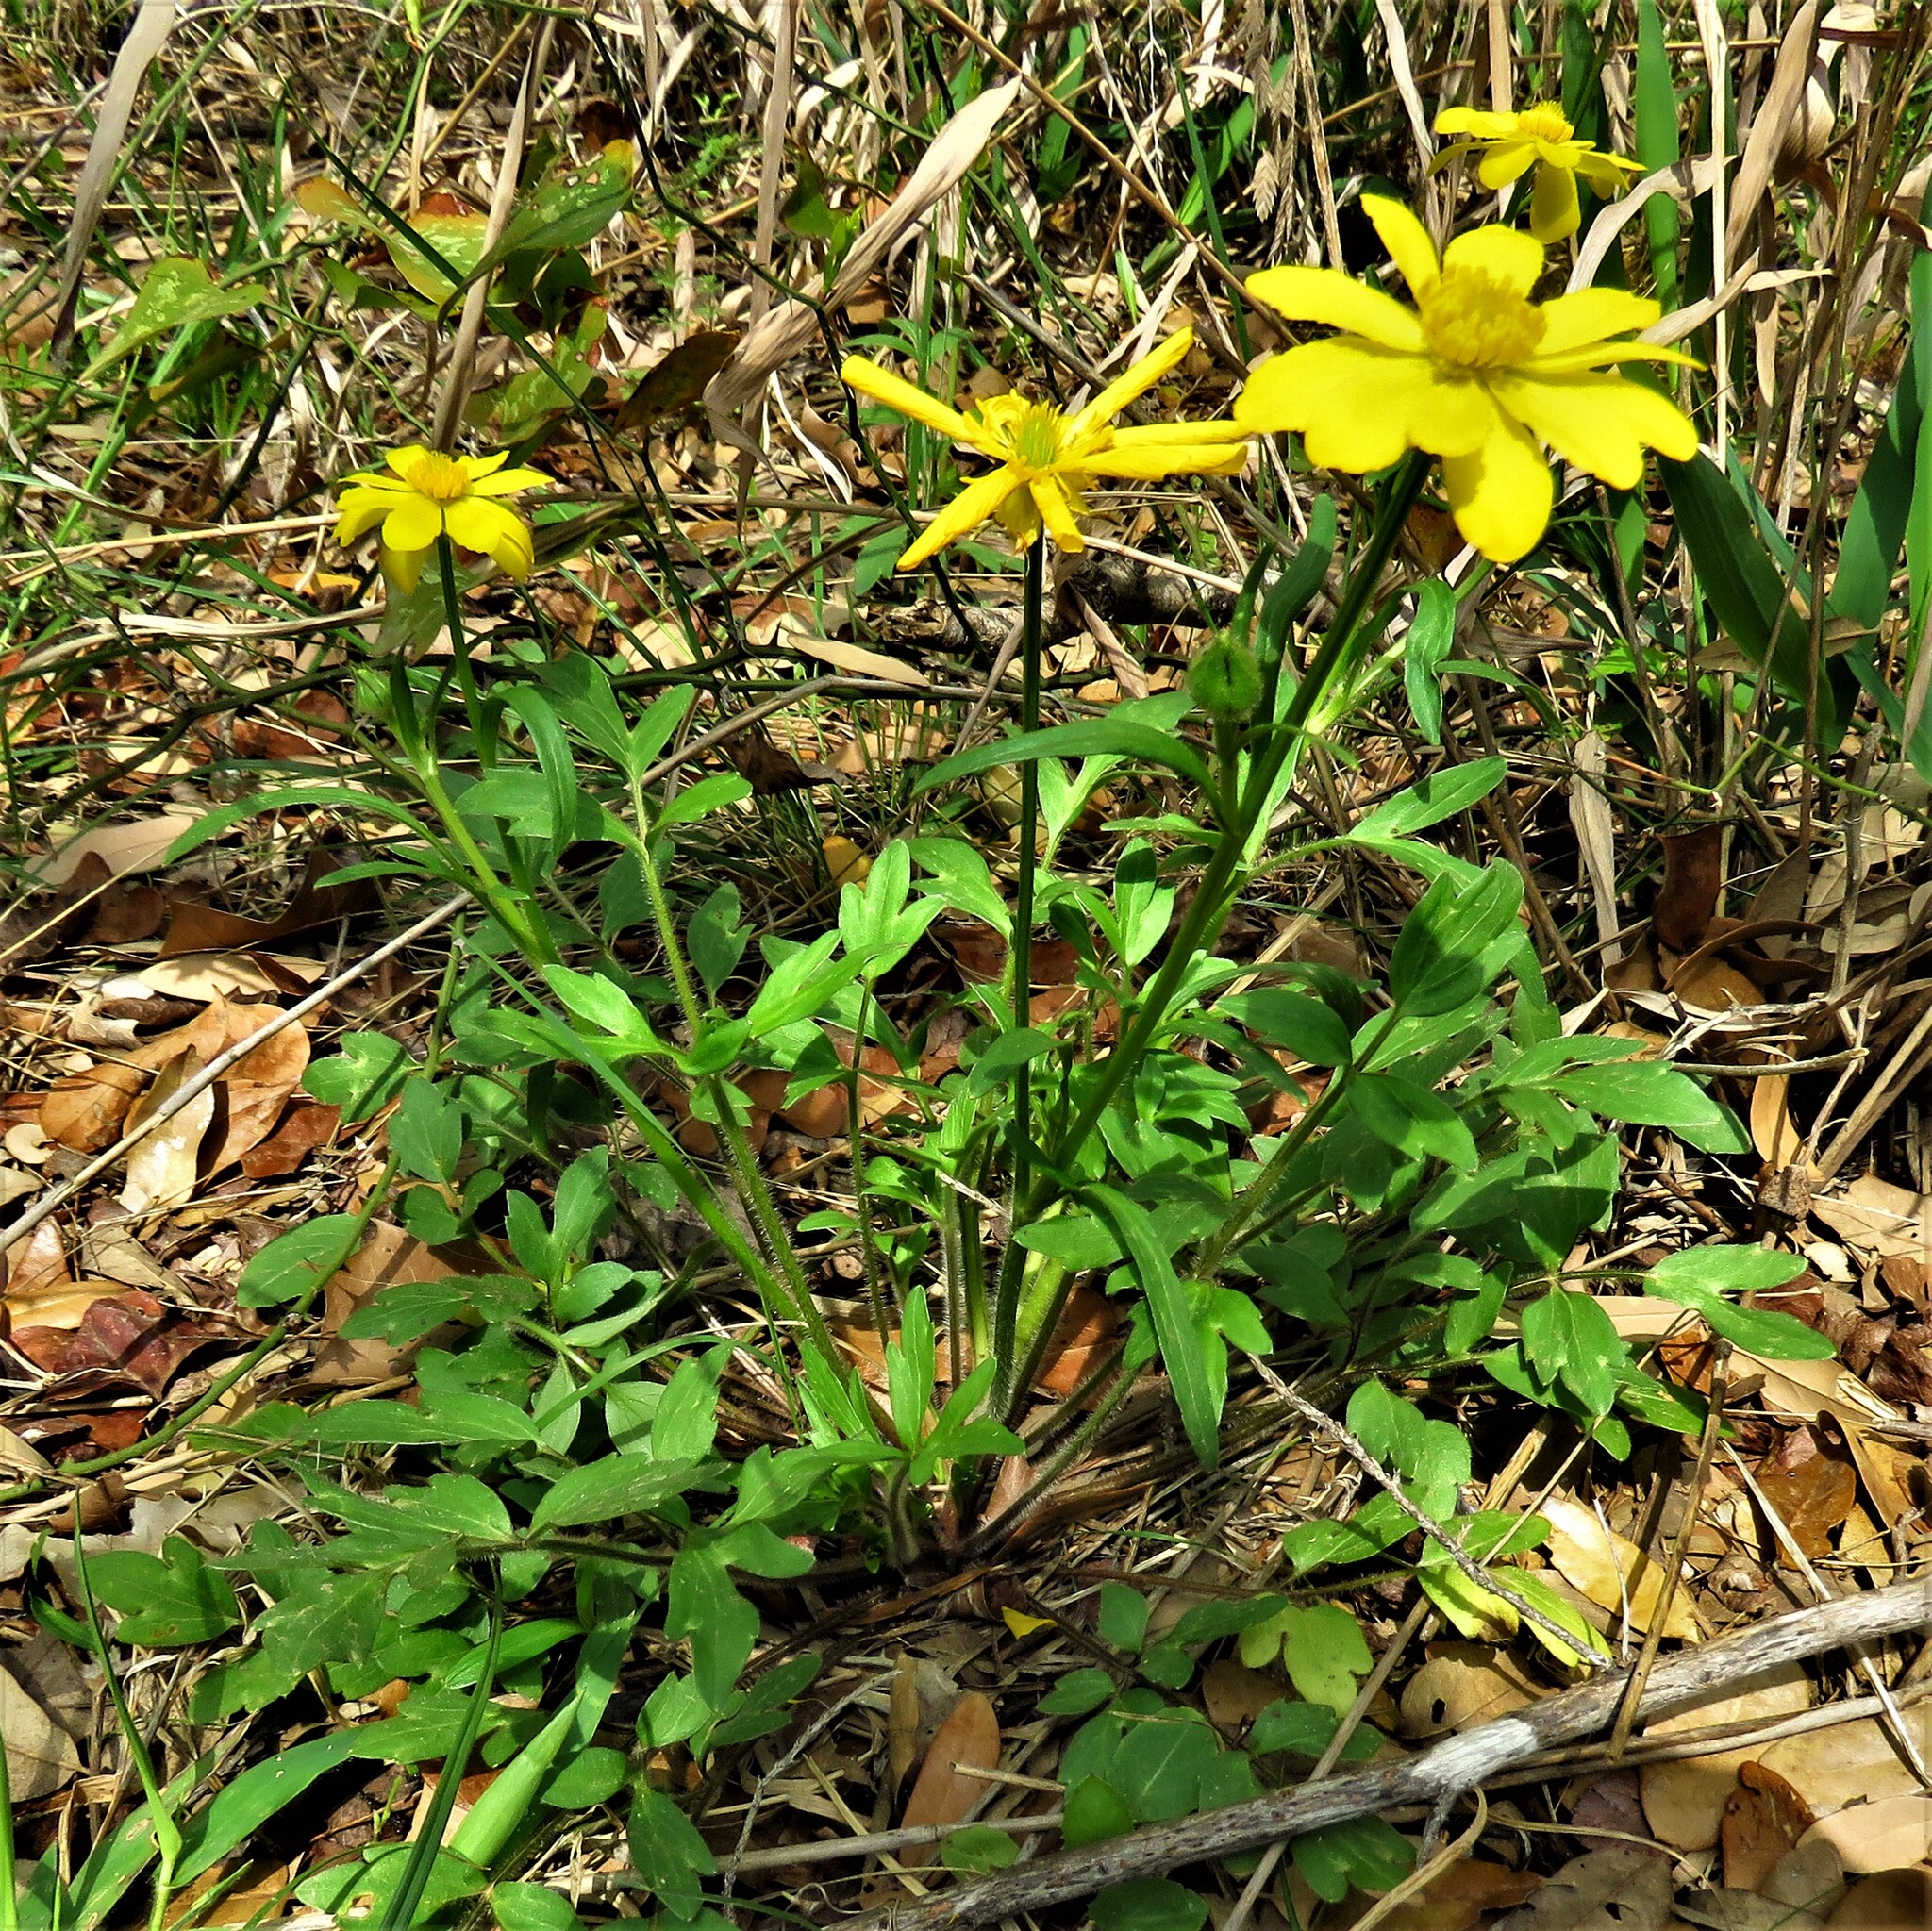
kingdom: Plantae
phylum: Tracheophyta
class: Magnoliopsida
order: Ranunculales
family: Ranunculaceae
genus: Ranunculus
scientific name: Ranunculus macranthus
